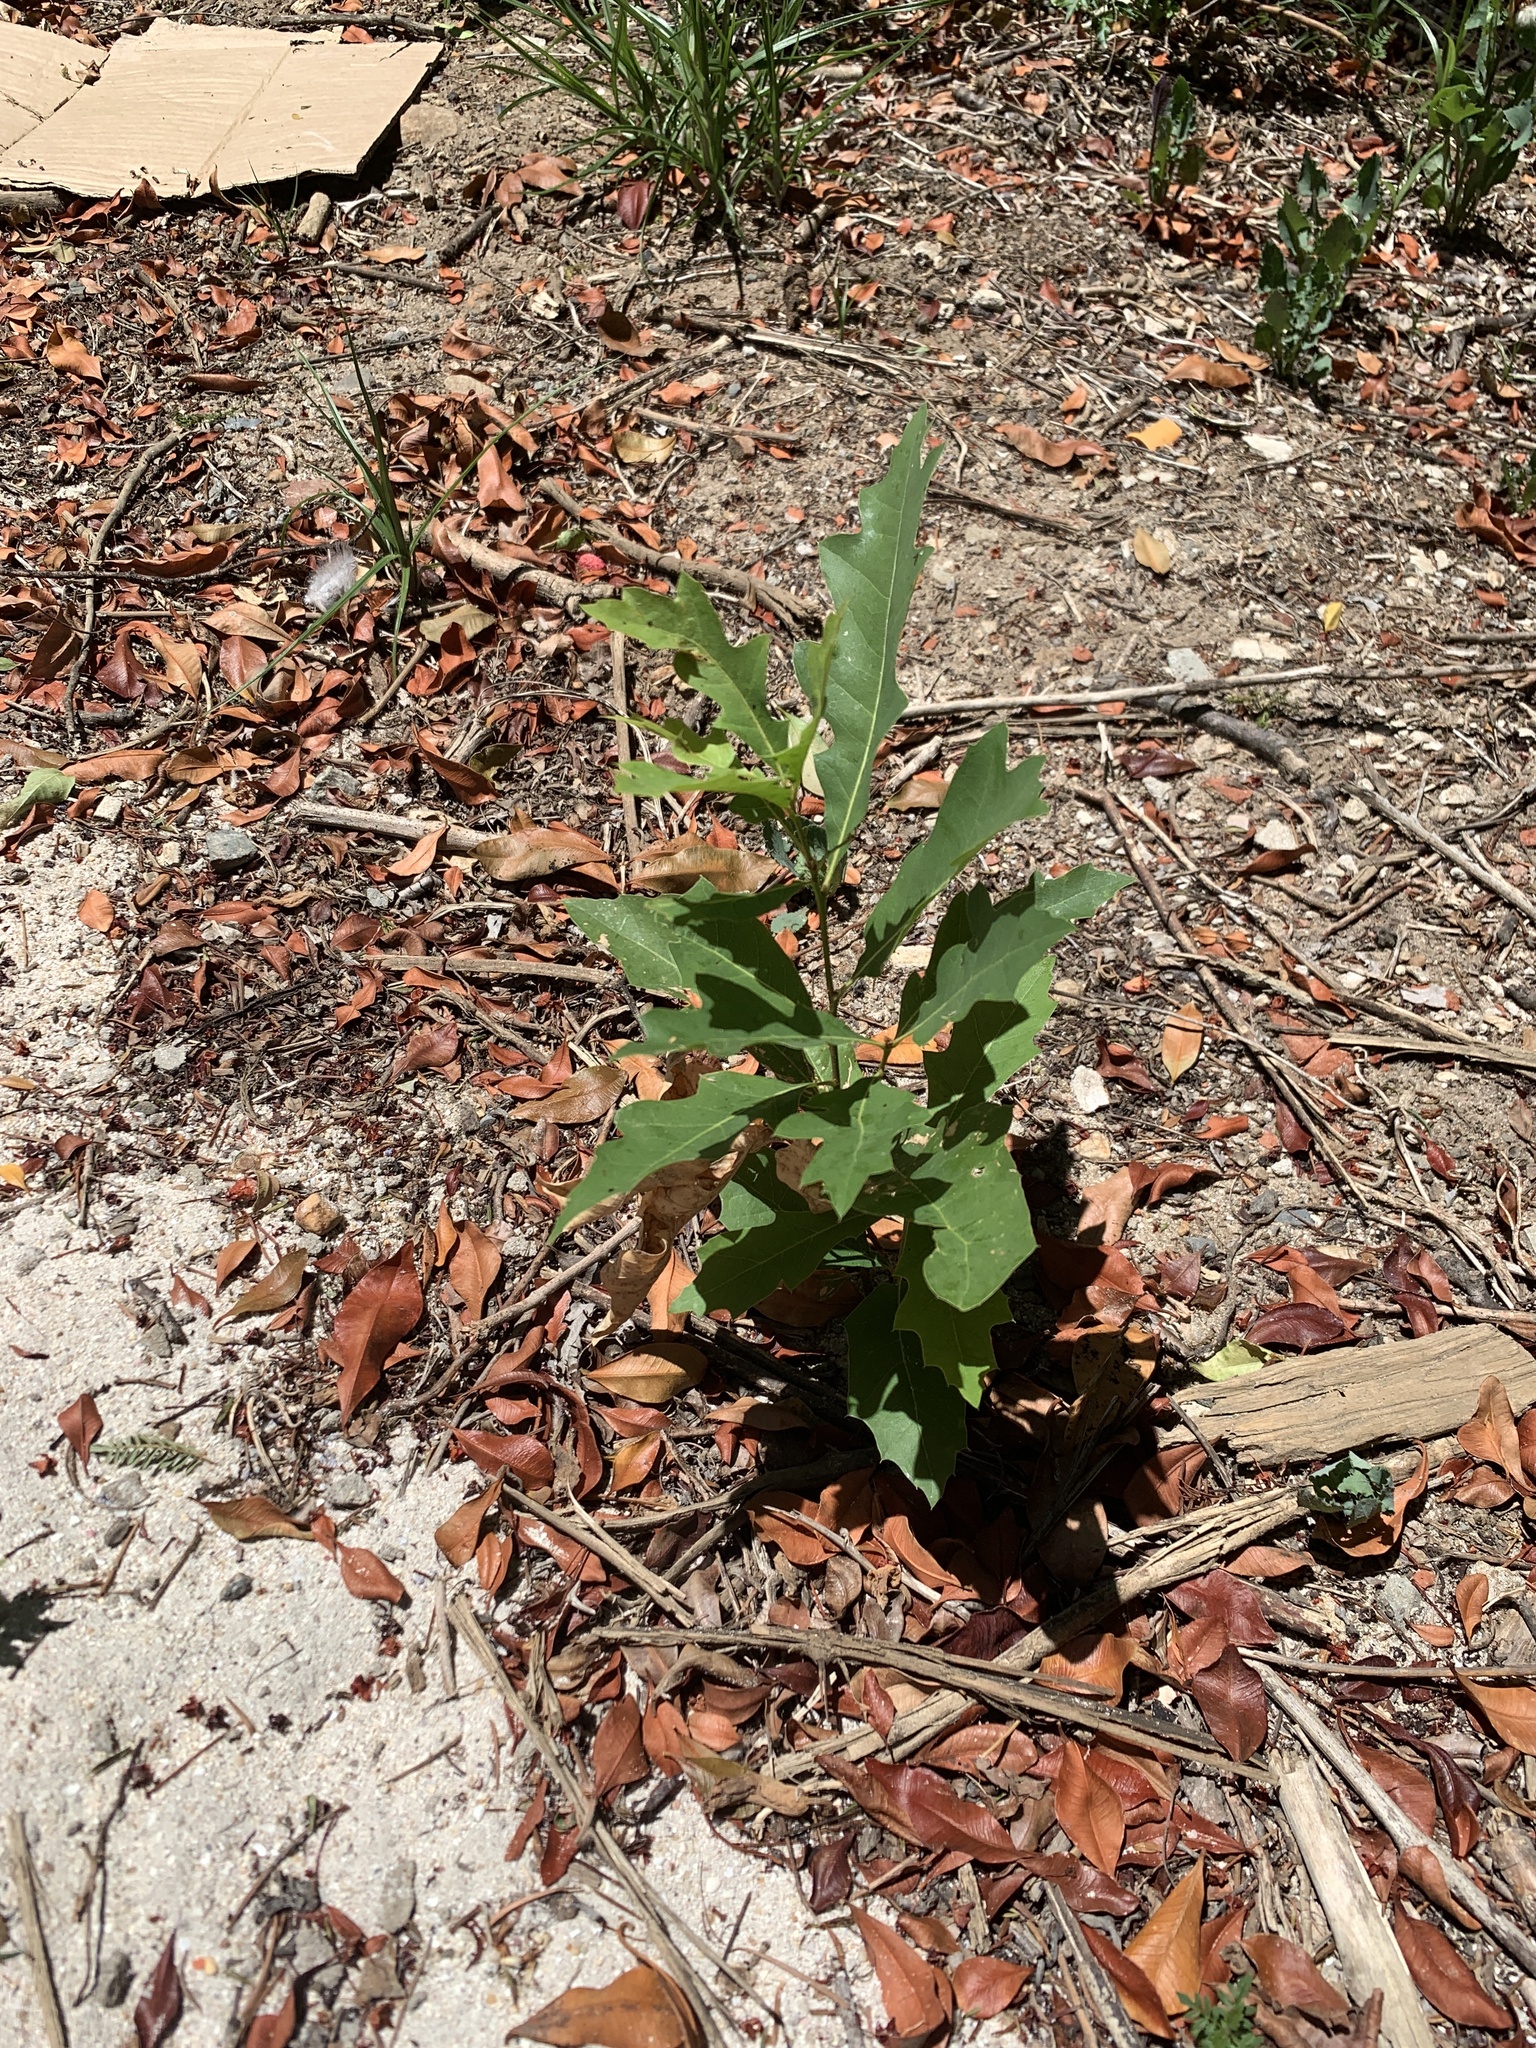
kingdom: Plantae
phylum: Tracheophyta
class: Magnoliopsida
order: Fagales
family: Fagaceae
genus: Quercus
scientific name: Quercus palustris
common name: Pin oak
